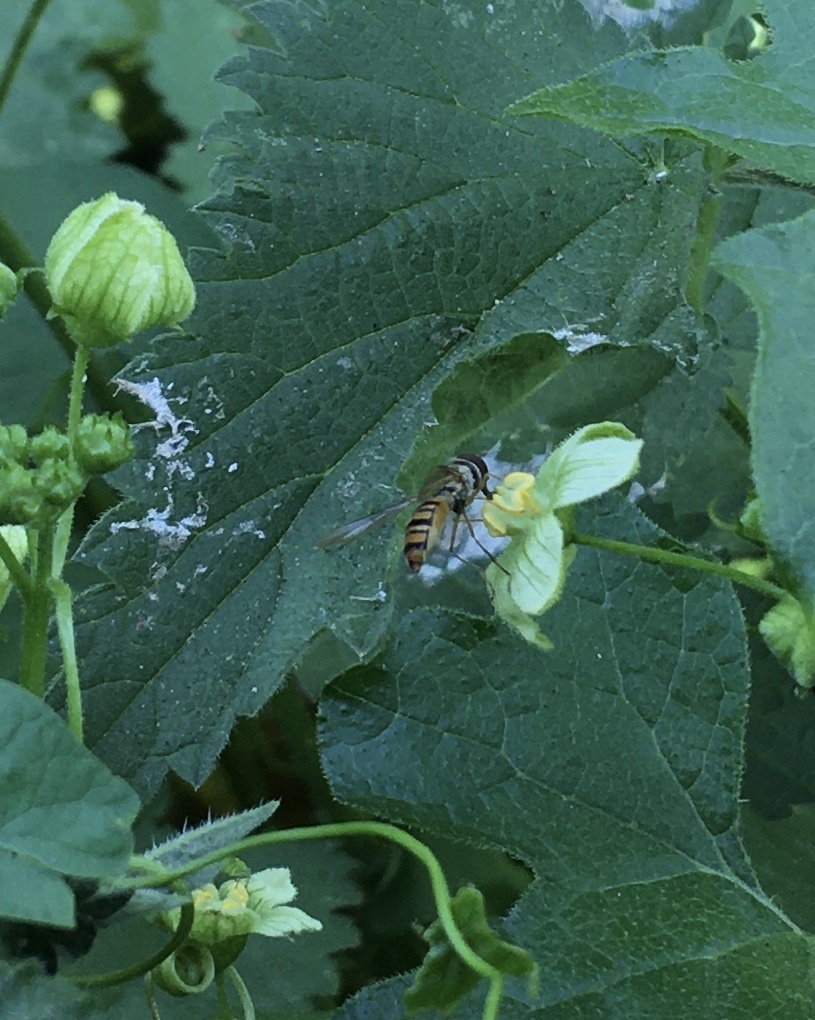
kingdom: Animalia
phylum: Arthropoda
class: Insecta
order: Diptera
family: Syrphidae
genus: Episyrphus
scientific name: Episyrphus balteatus
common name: Marmalade hoverfly
